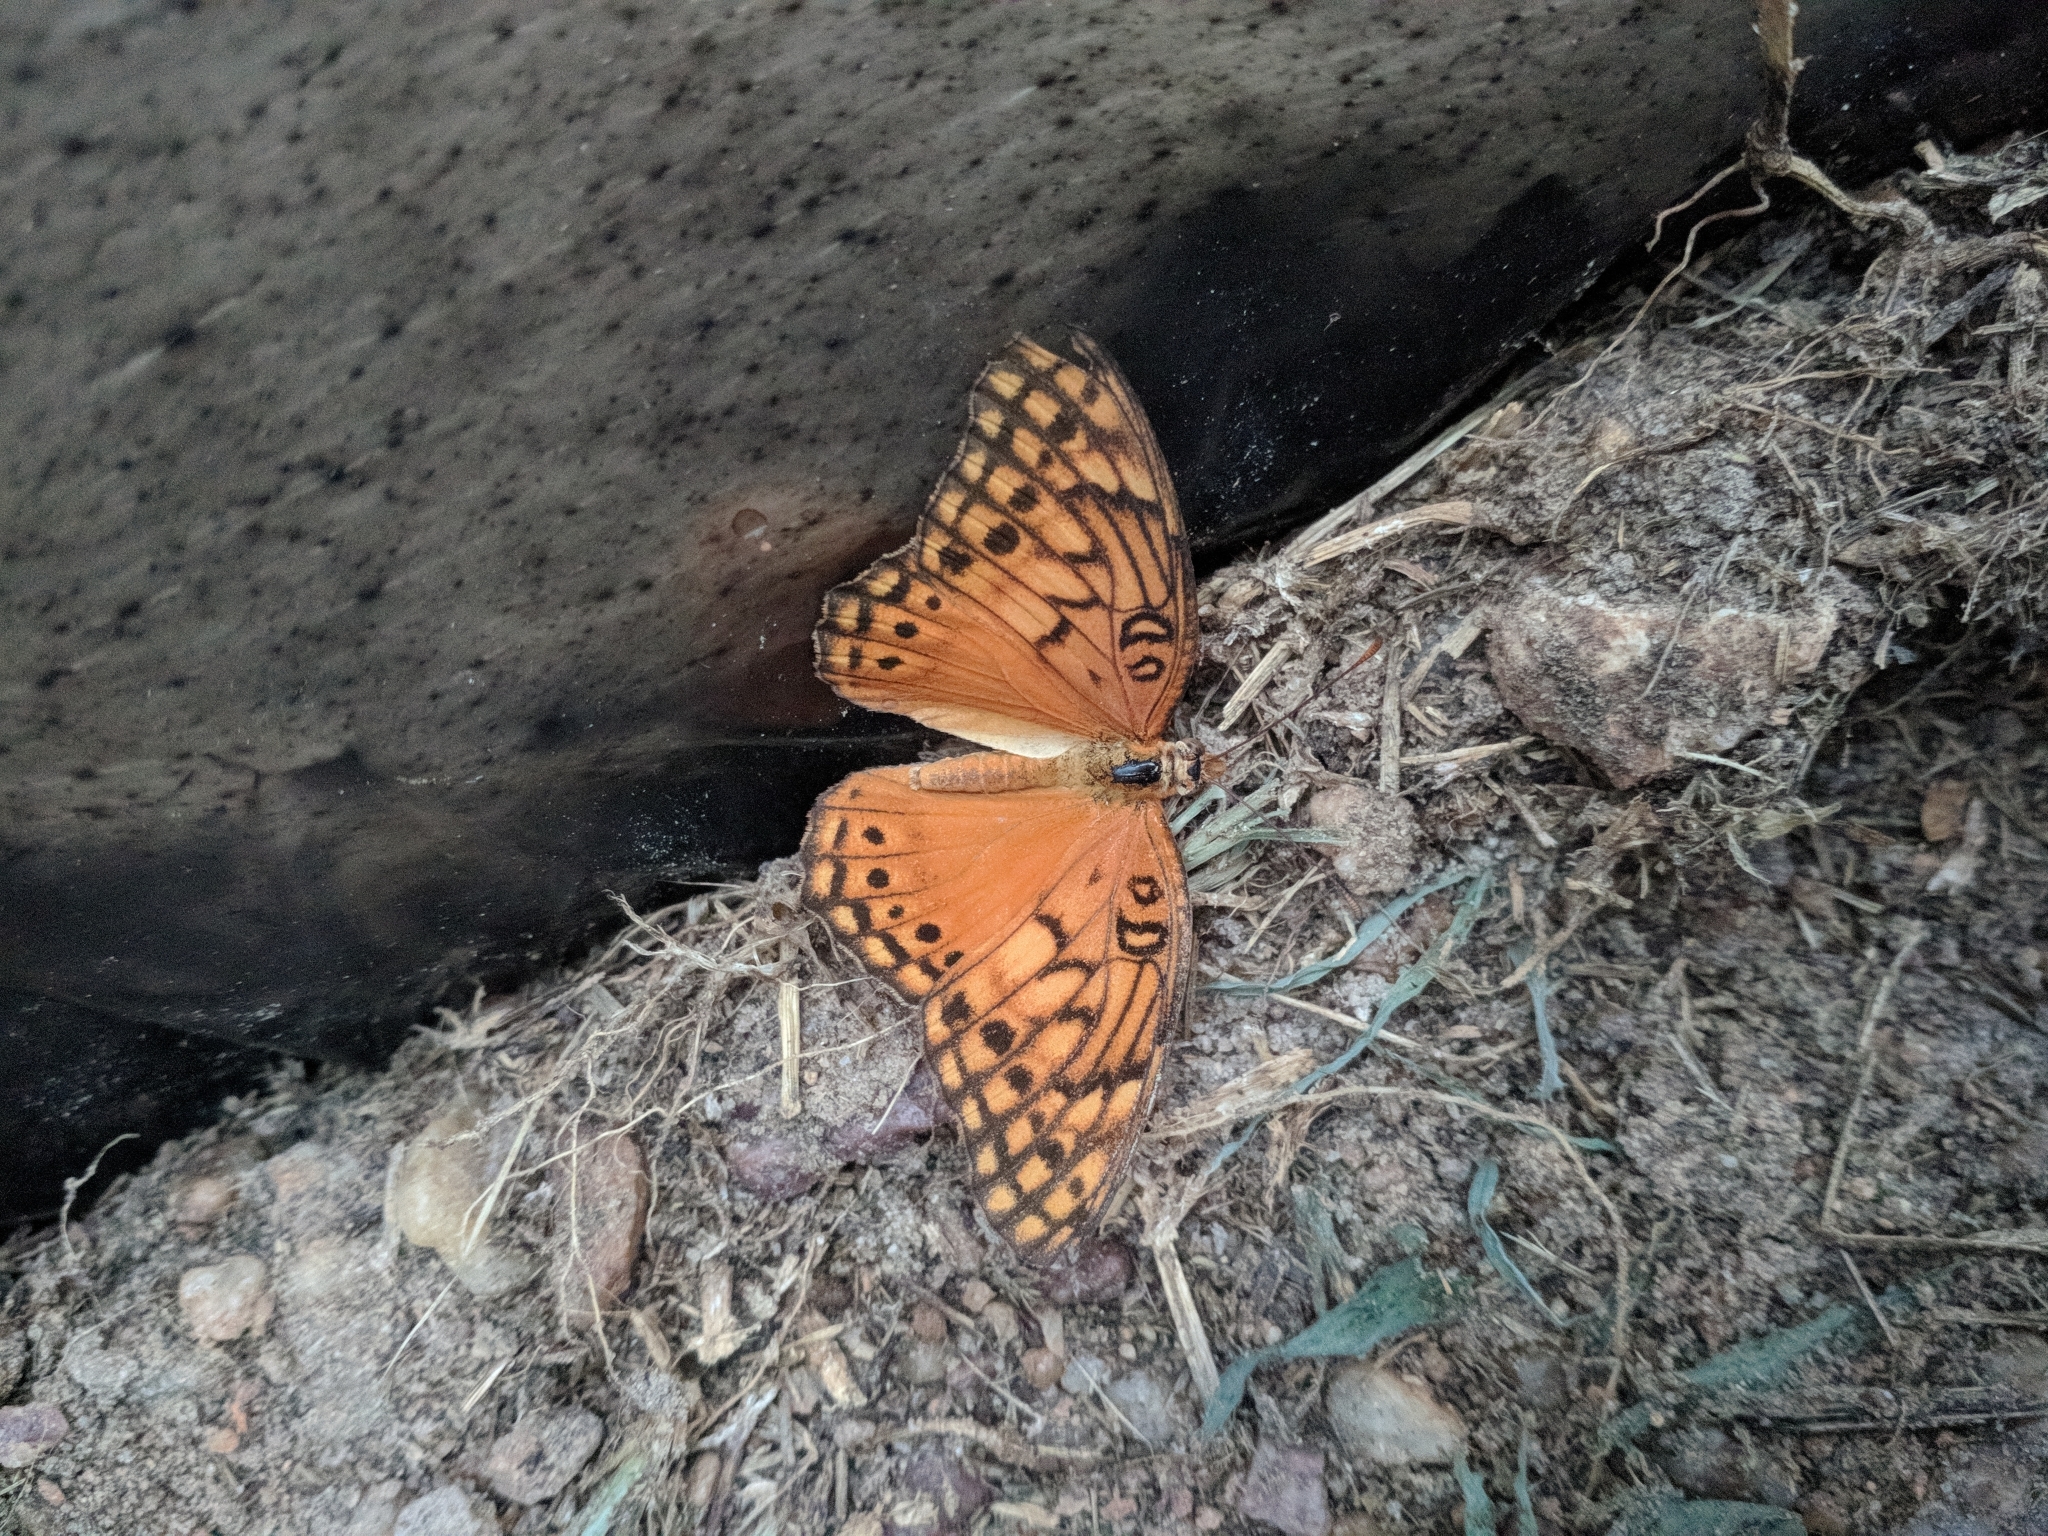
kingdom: Animalia
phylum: Arthropoda
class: Insecta
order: Lepidoptera
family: Nymphalidae
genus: Euptoieta
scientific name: Euptoieta hegesia
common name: Mexican fritillary
